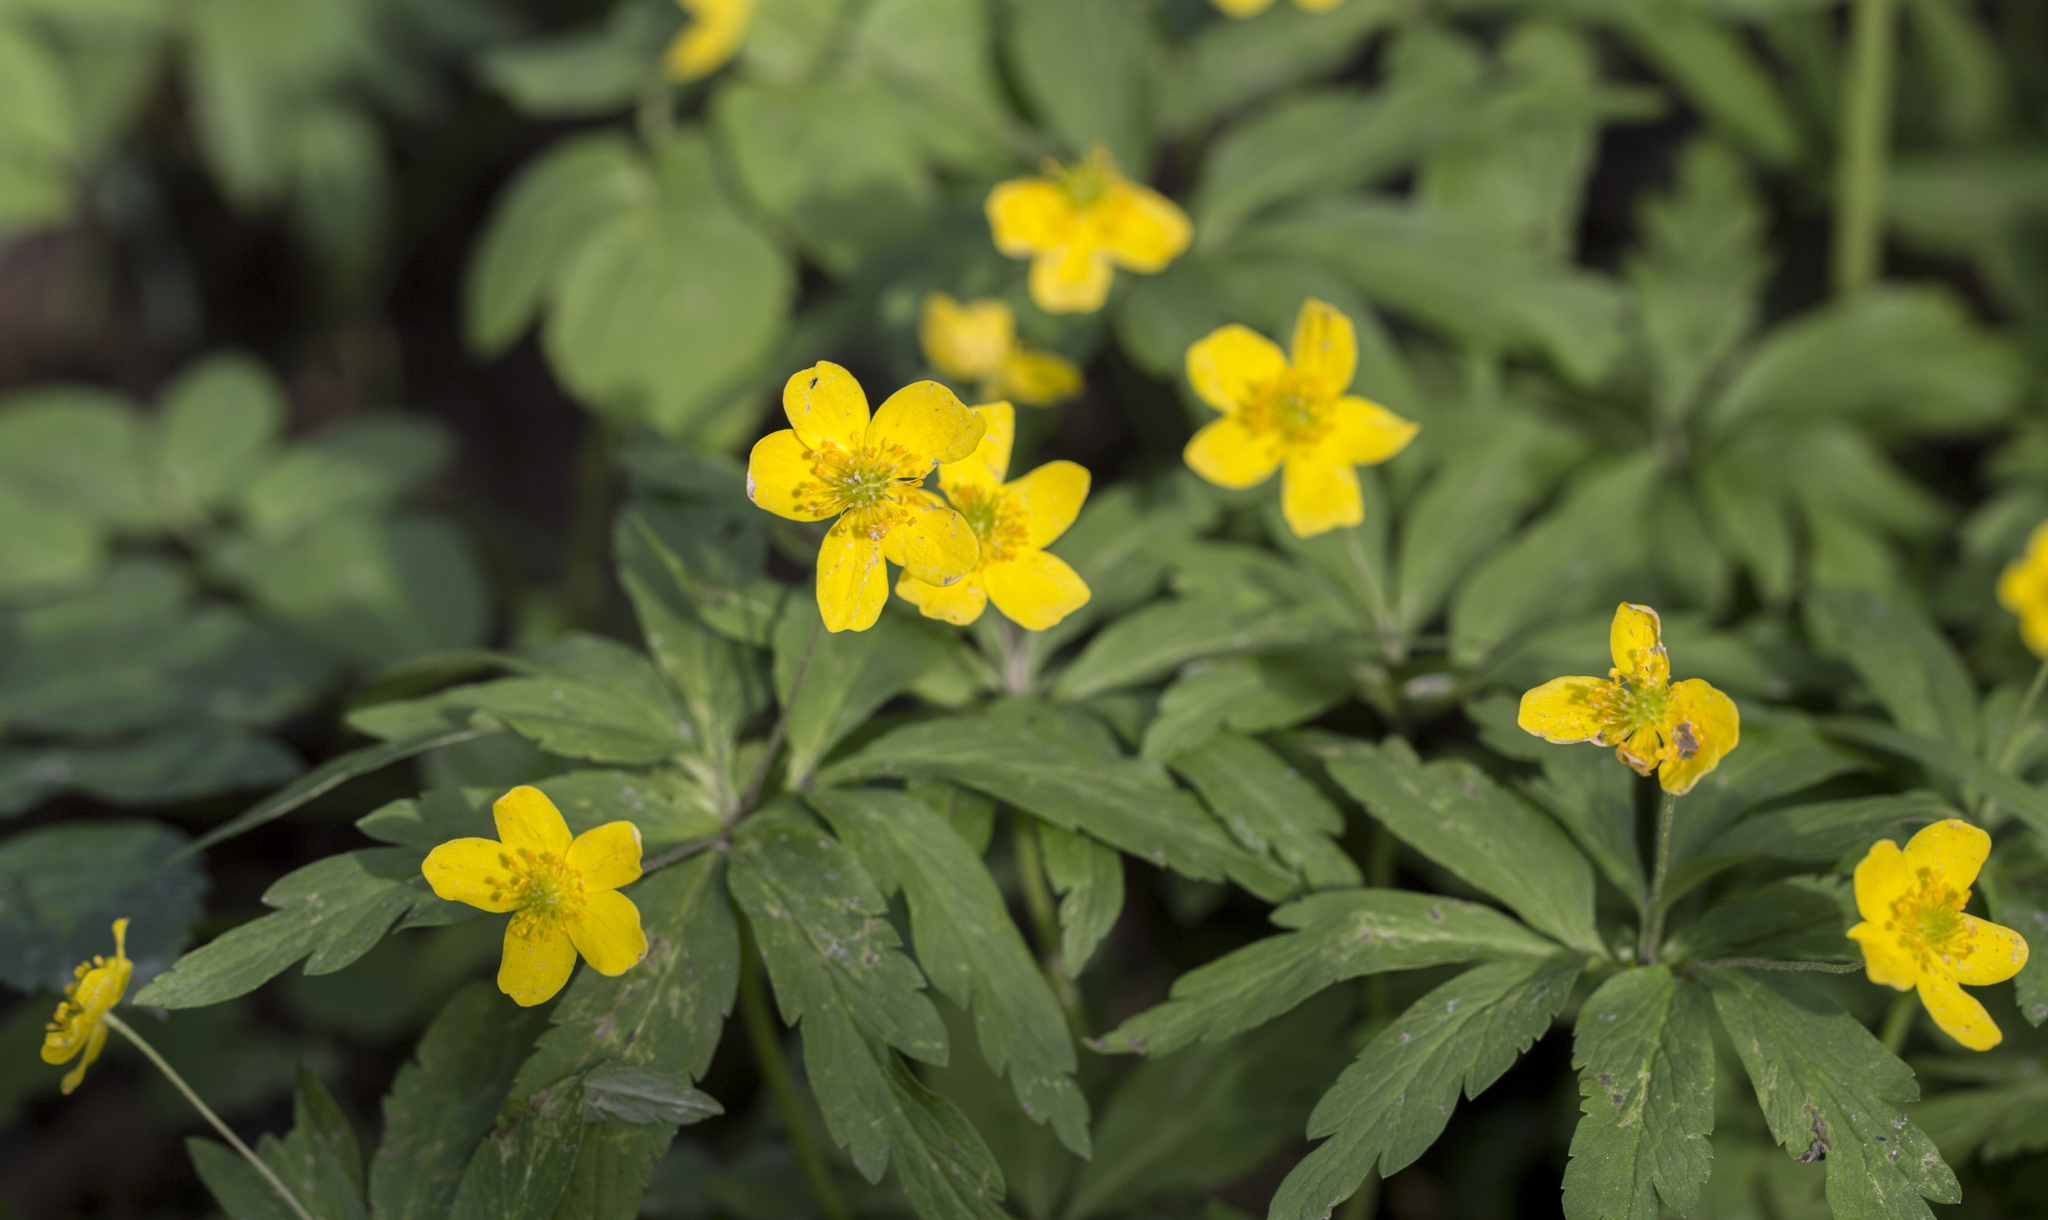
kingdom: Plantae
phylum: Tracheophyta
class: Magnoliopsida
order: Ranunculales
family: Ranunculaceae
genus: Anemone
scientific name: Anemone ranunculoides
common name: Yellow anemone
